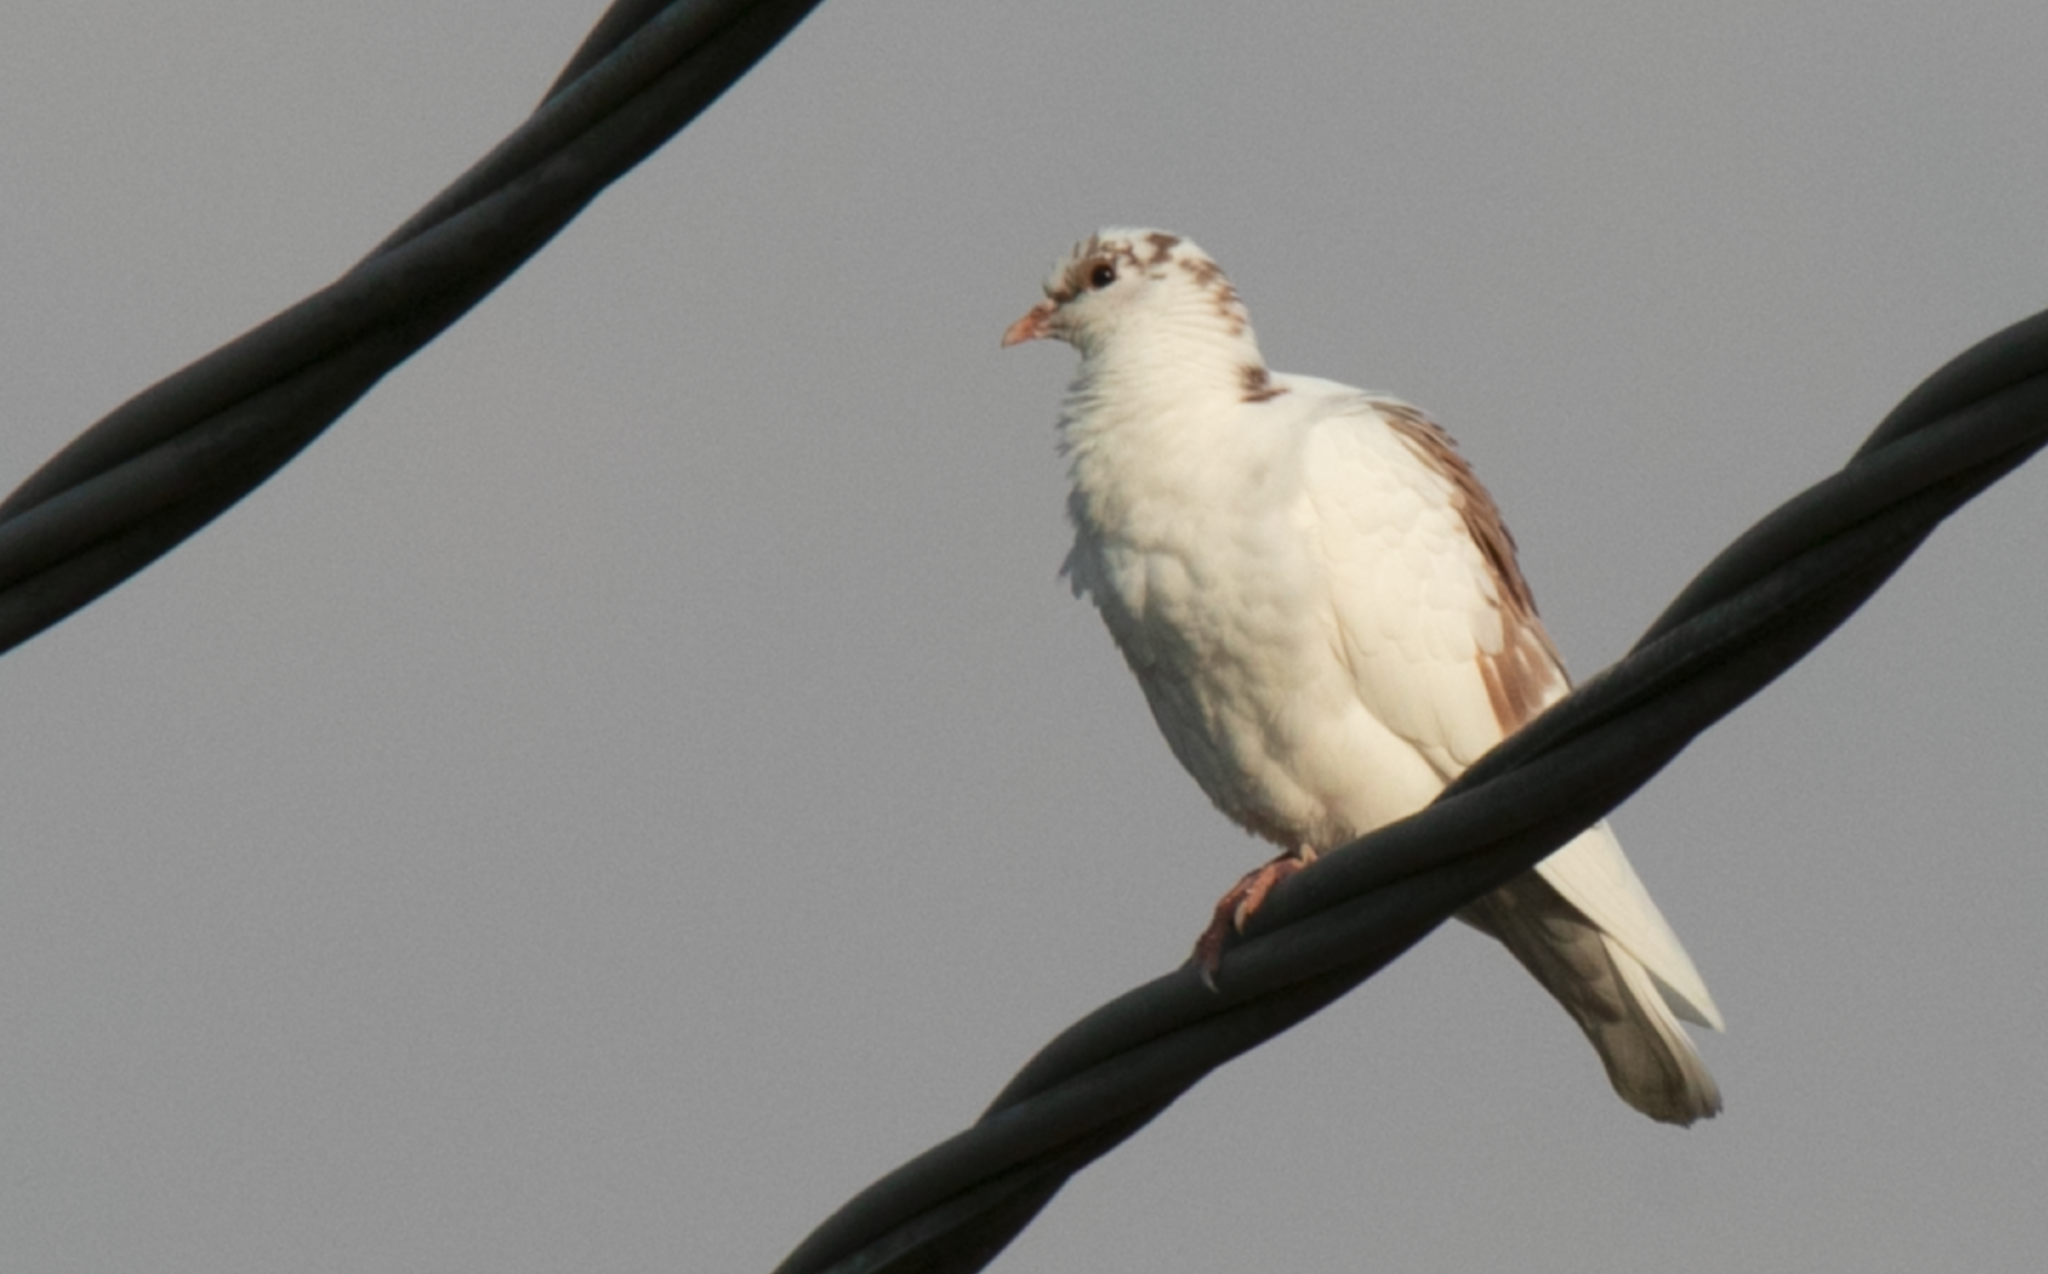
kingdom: Animalia
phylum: Chordata
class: Aves
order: Columbiformes
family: Columbidae
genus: Columba
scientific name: Columba livia
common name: Rock pigeon
